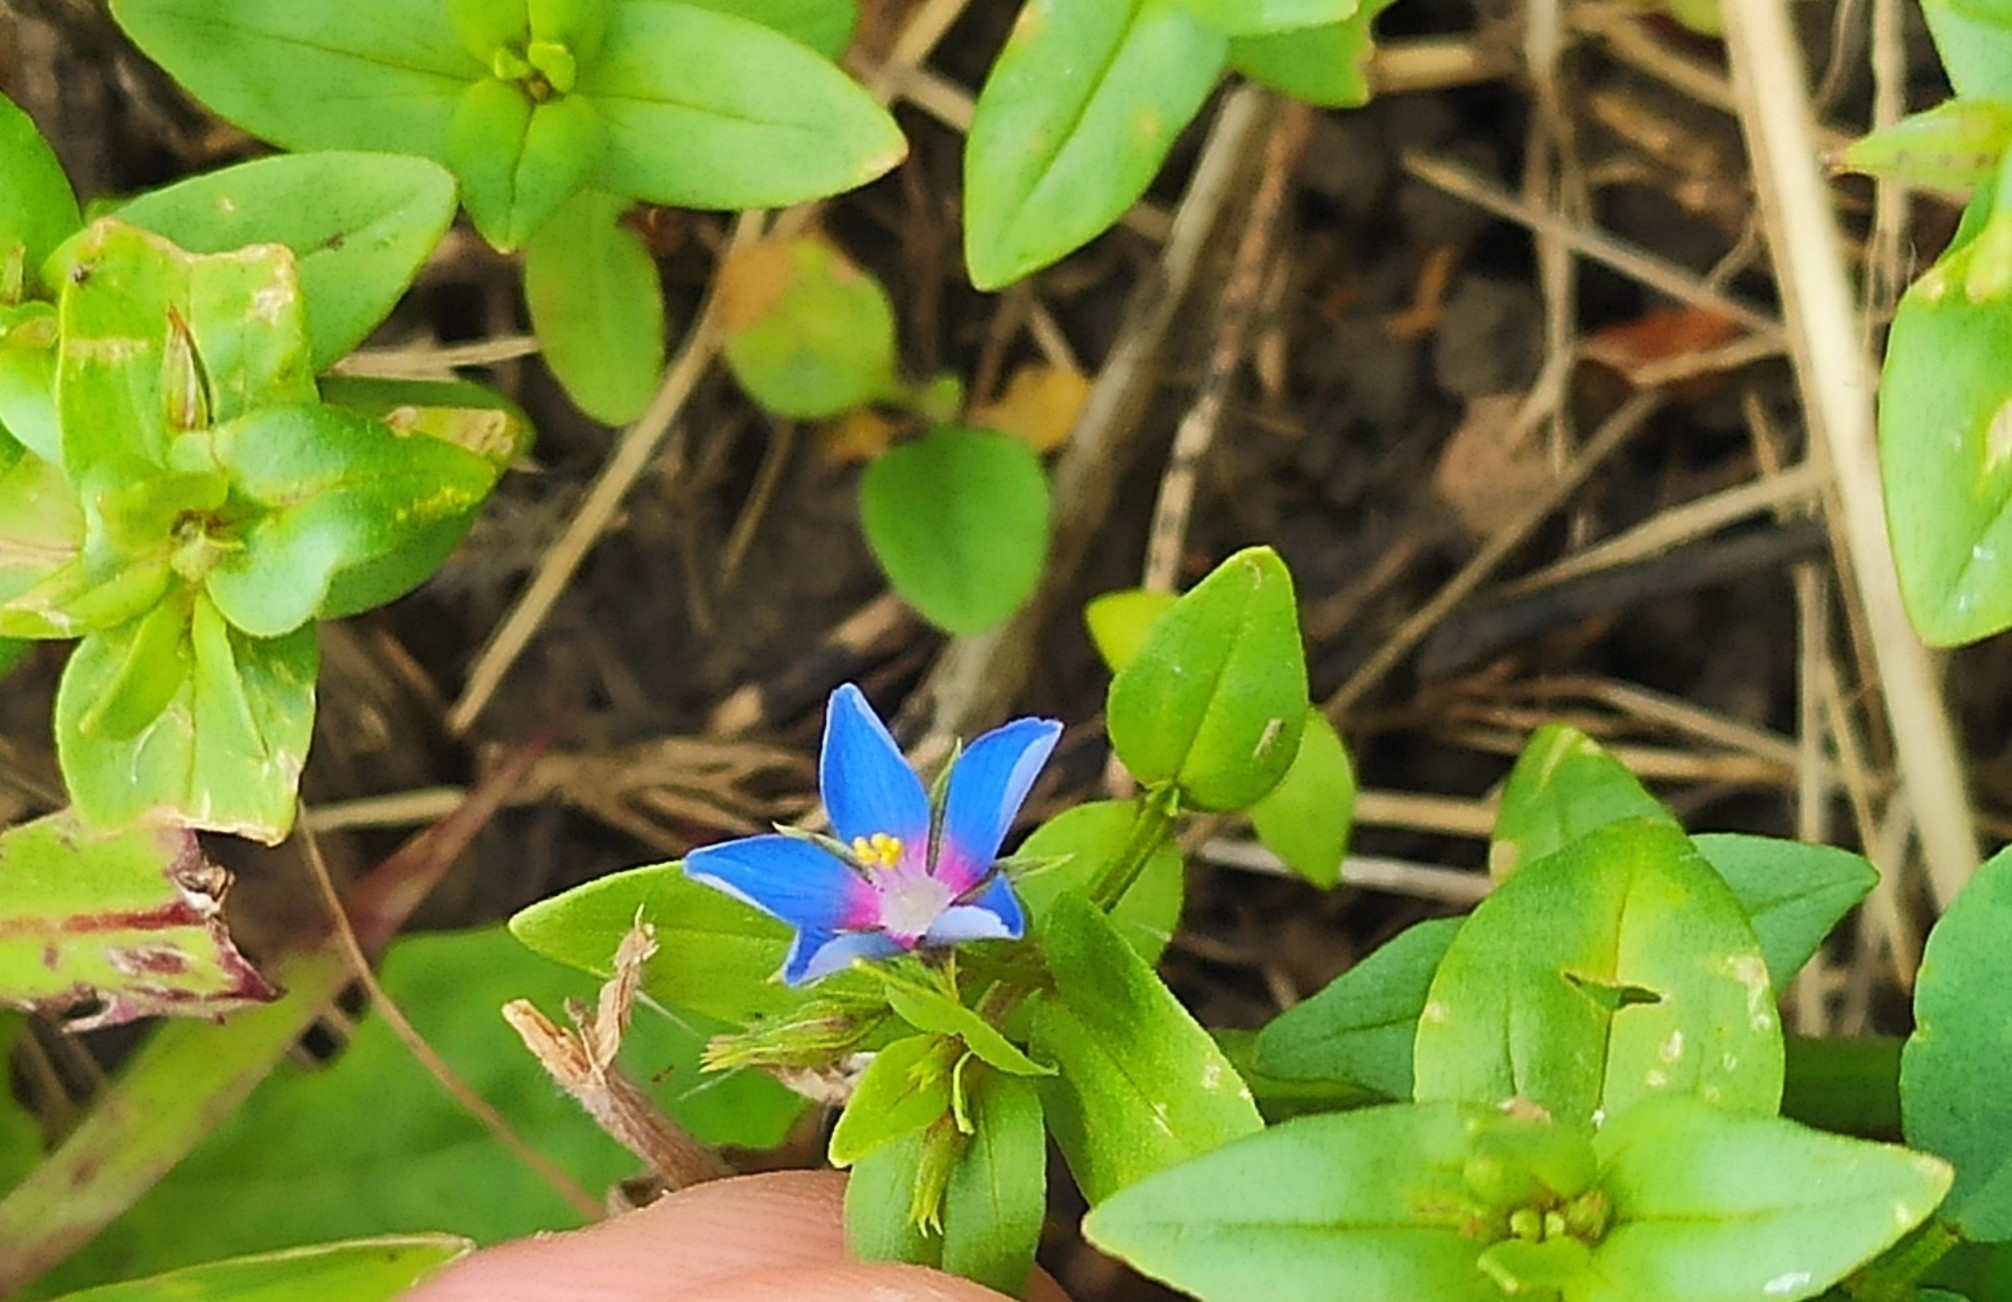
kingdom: Plantae
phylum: Tracheophyta
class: Magnoliopsida
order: Ericales
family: Primulaceae
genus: Lysimachia
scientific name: Lysimachia foemina
